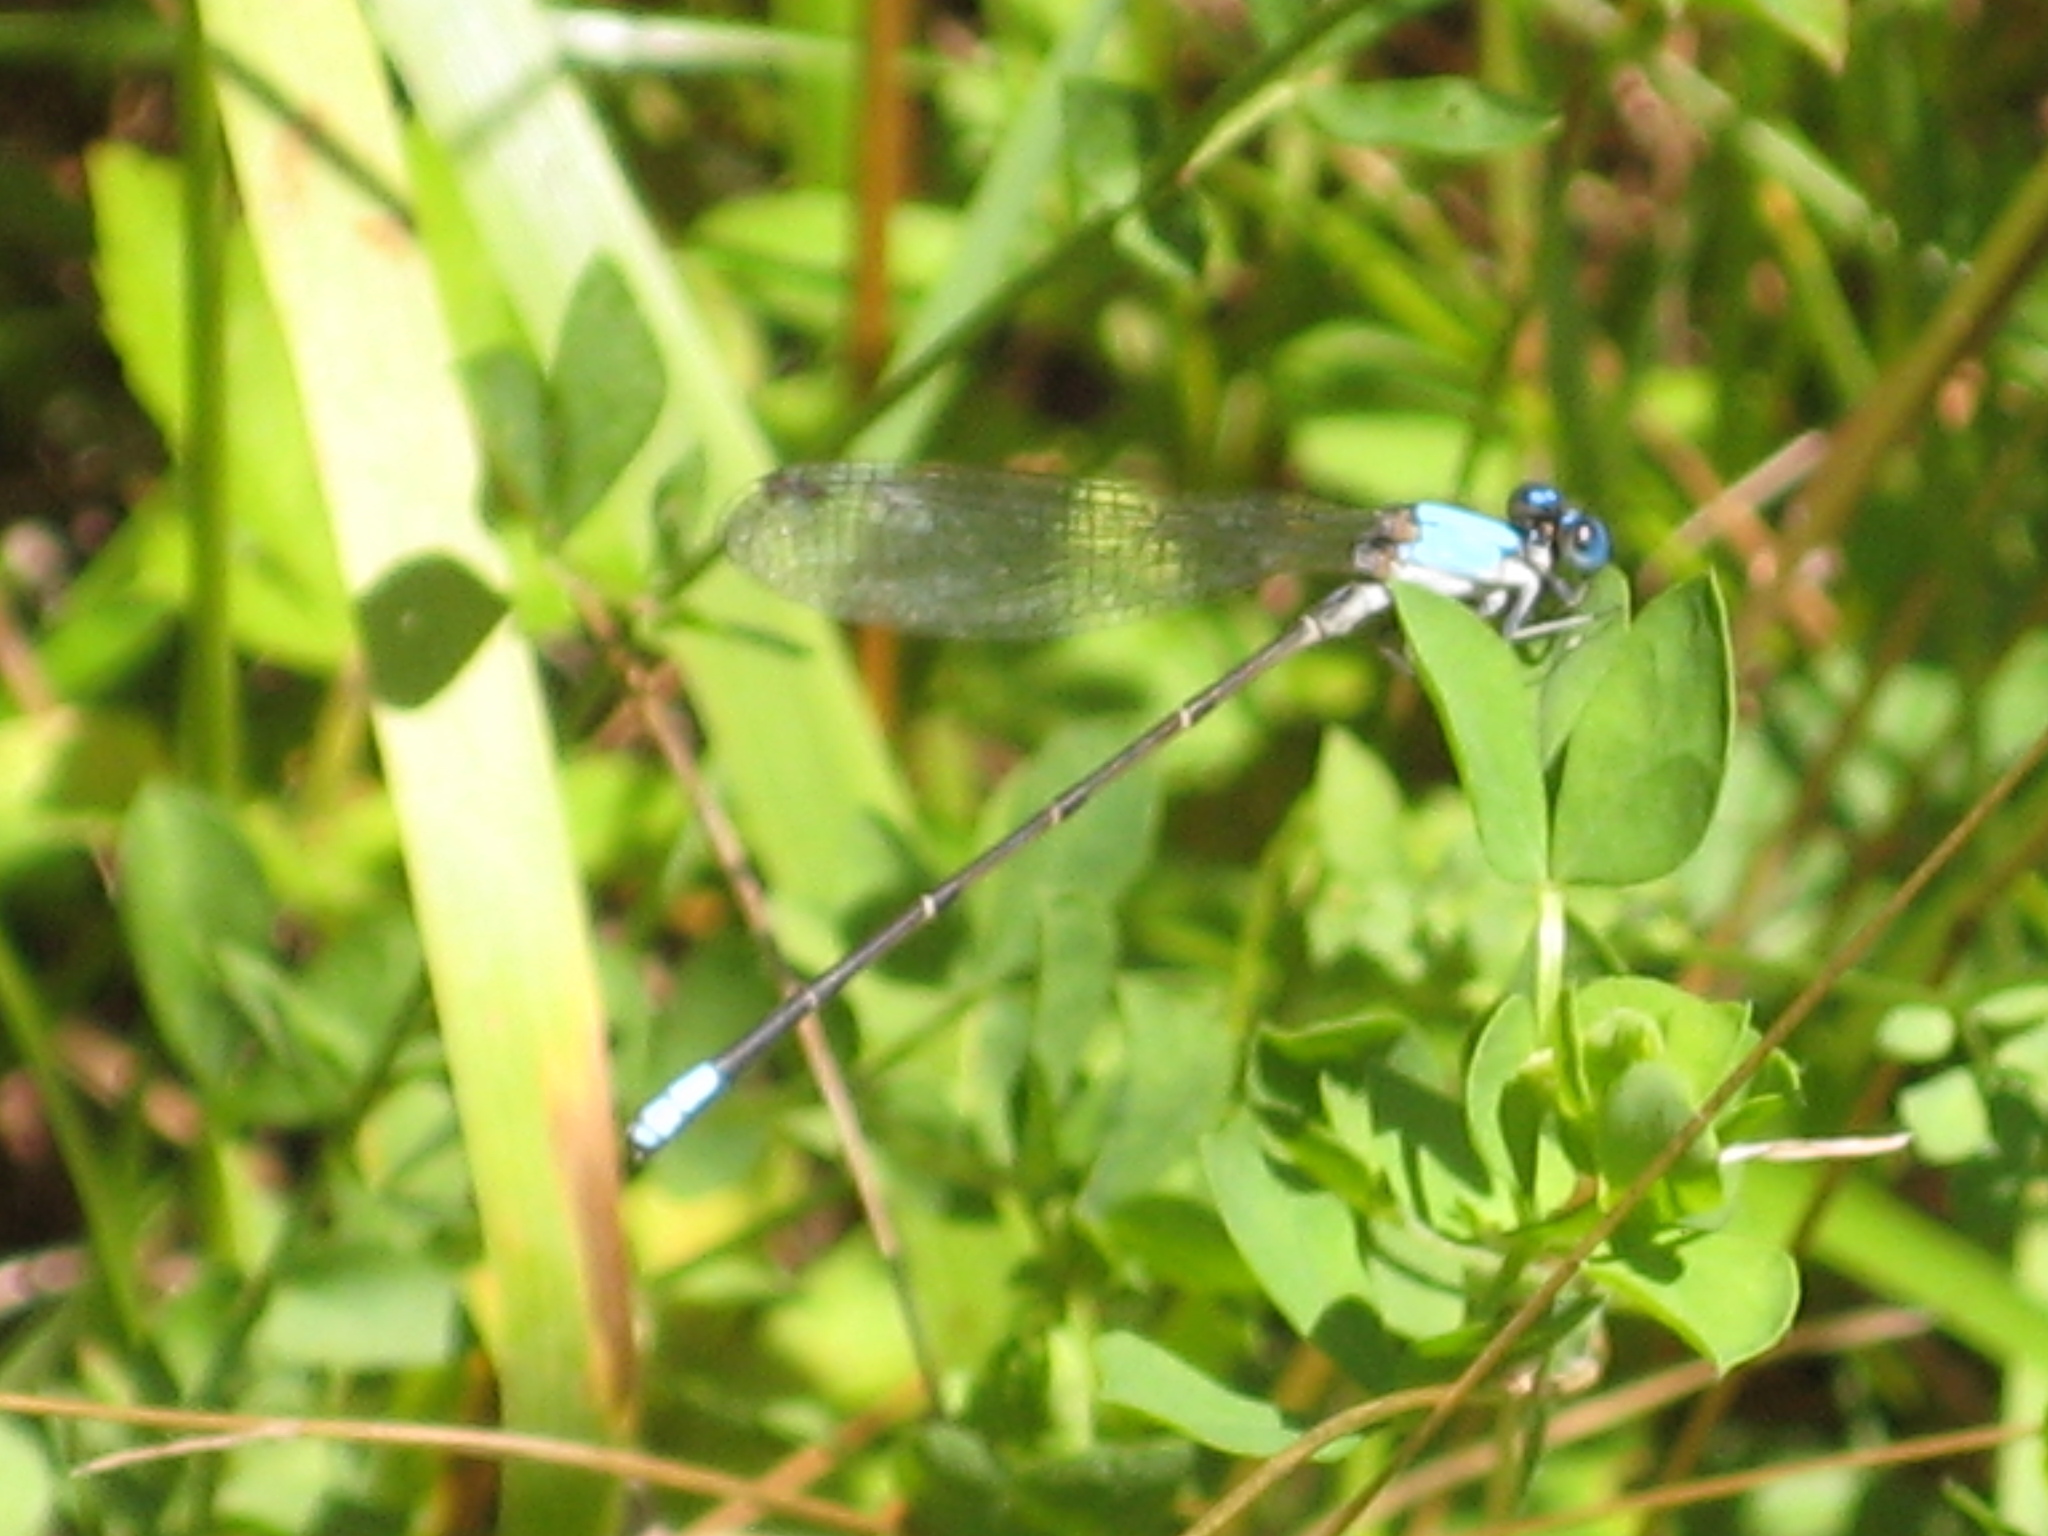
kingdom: Animalia
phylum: Arthropoda
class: Insecta
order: Odonata
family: Coenagrionidae
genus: Argia
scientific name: Argia apicalis
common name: Blue-fronted dancer
